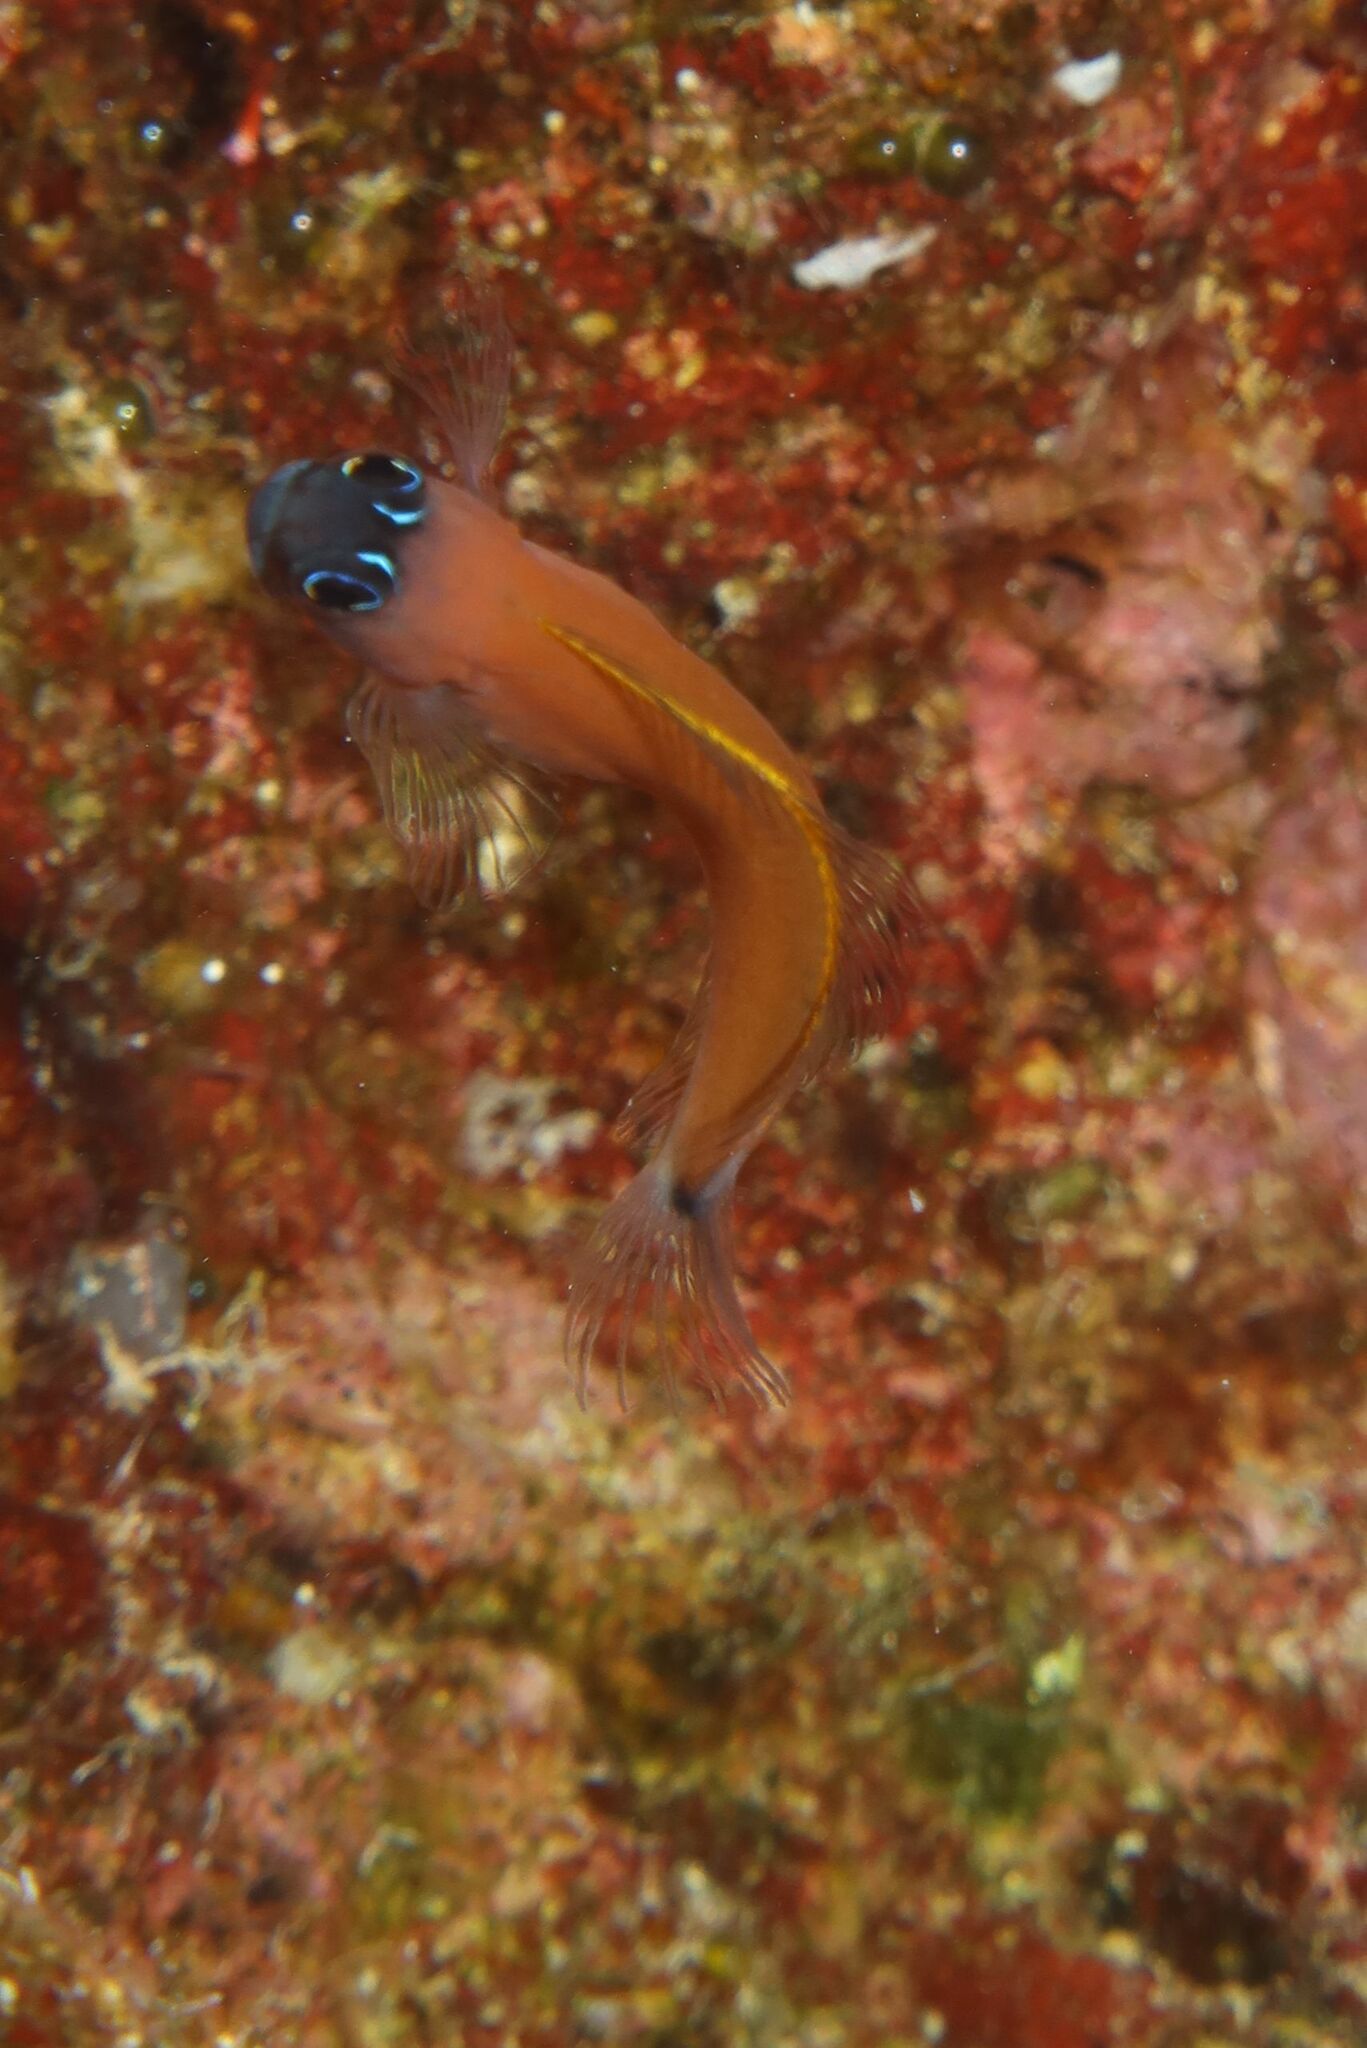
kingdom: Animalia
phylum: Chordata
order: Perciformes
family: Blenniidae
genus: Ecsenius
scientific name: Ecsenius aroni
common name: Aron's blenny
